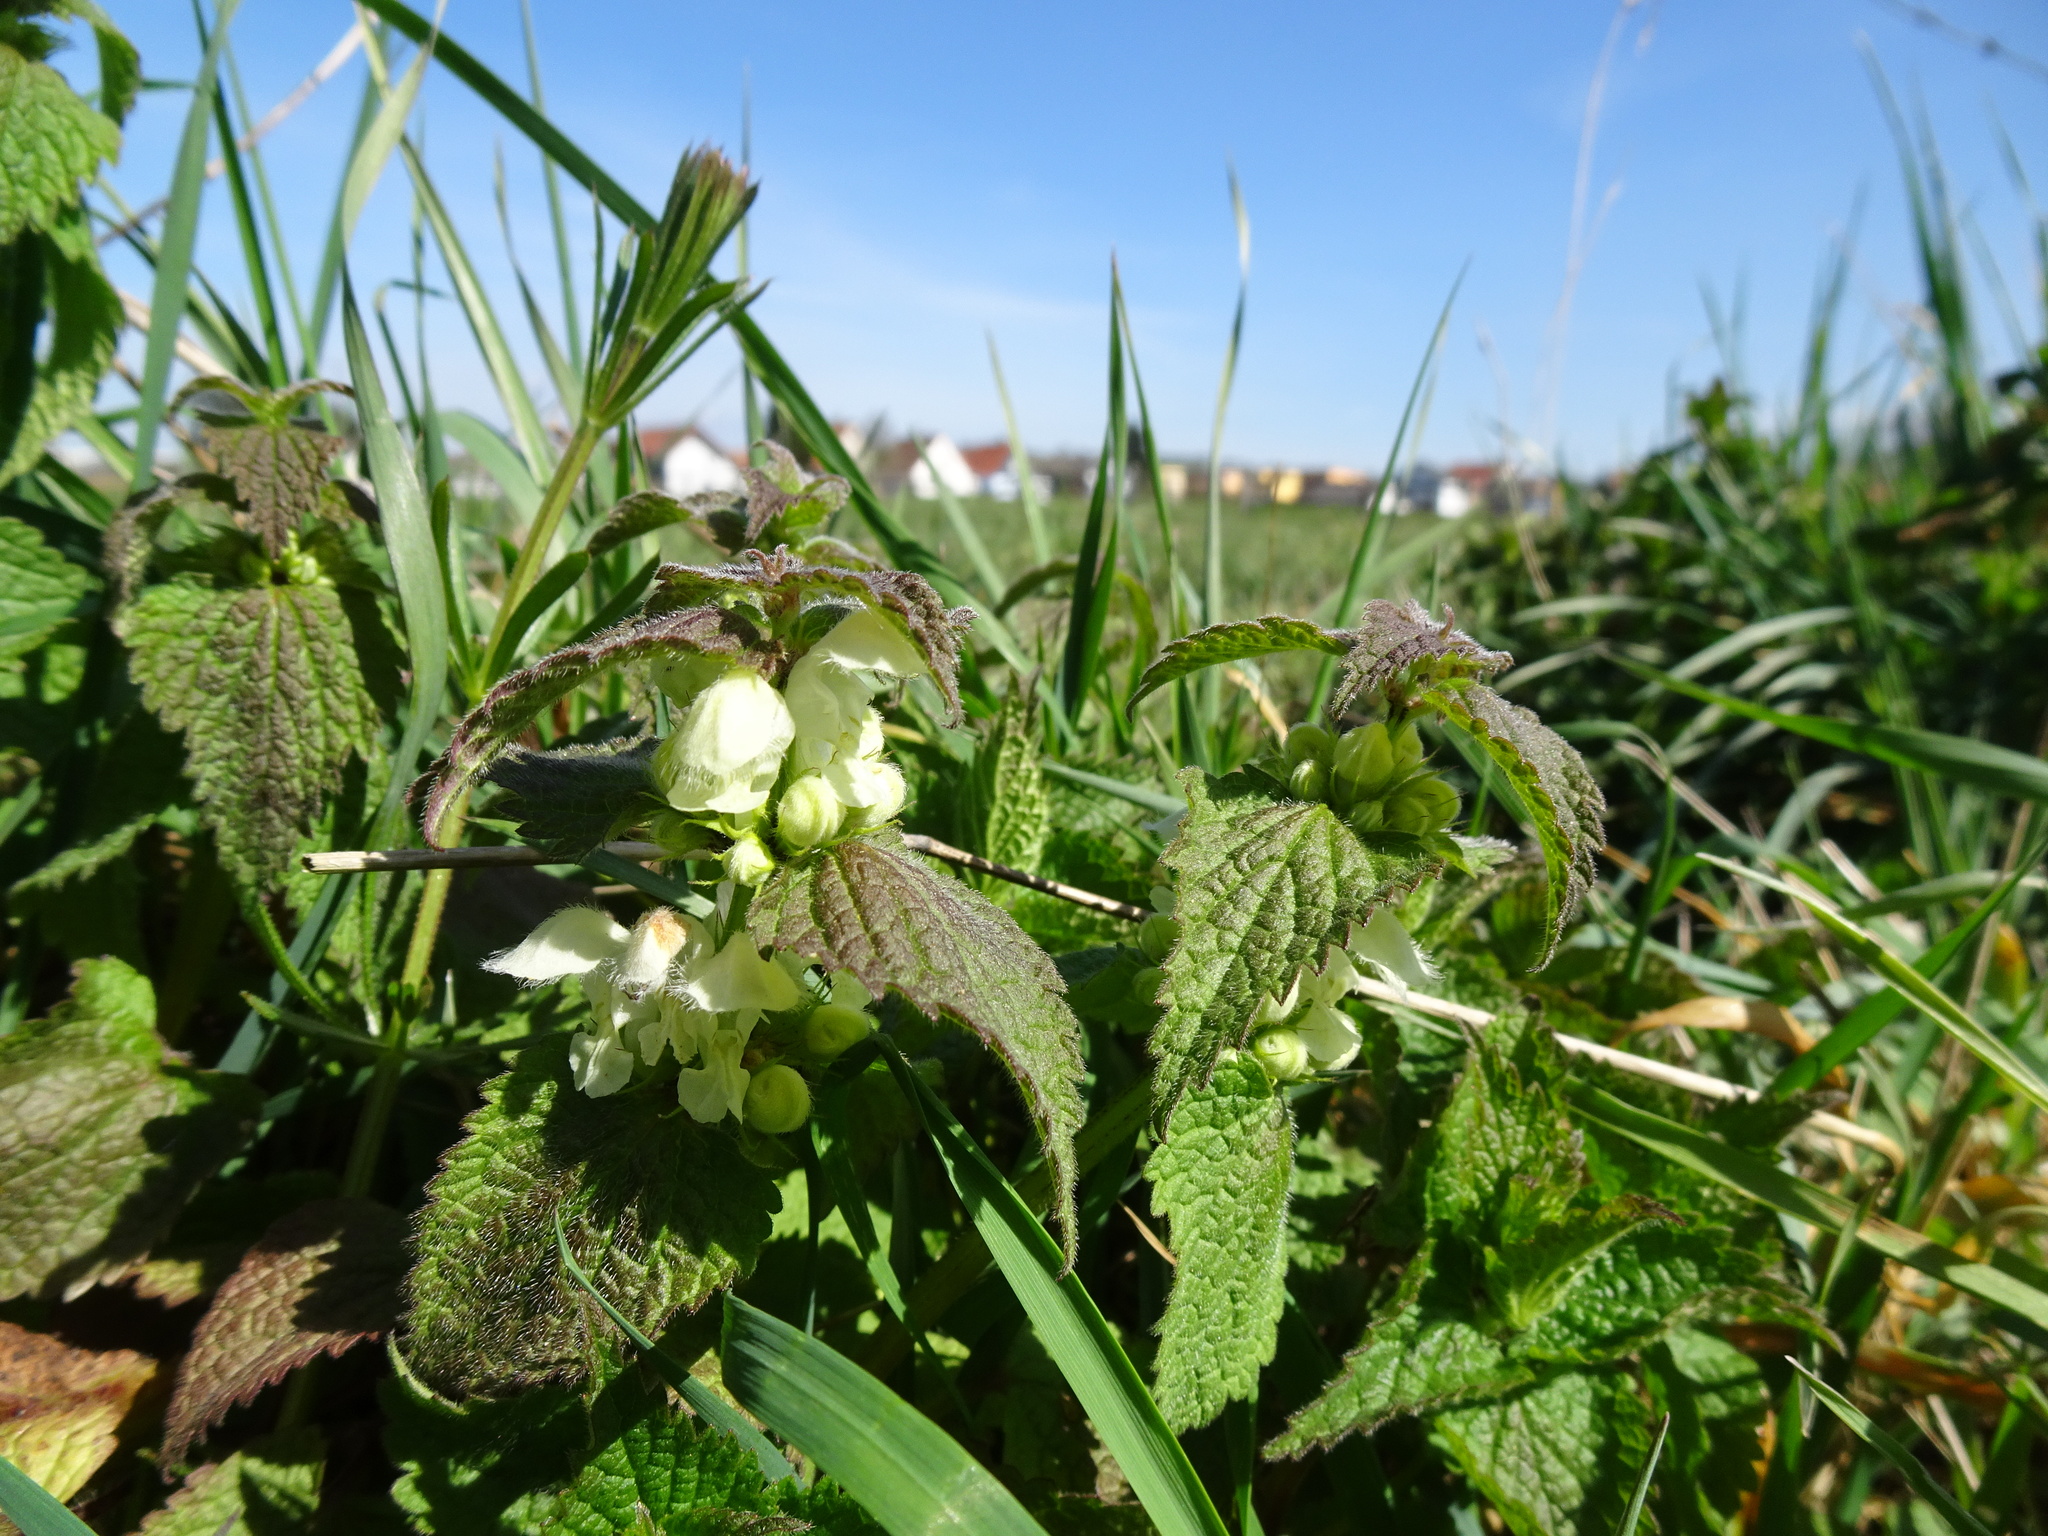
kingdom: Plantae
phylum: Tracheophyta
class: Magnoliopsida
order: Lamiales
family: Lamiaceae
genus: Lamium
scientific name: Lamium album
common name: White dead-nettle
